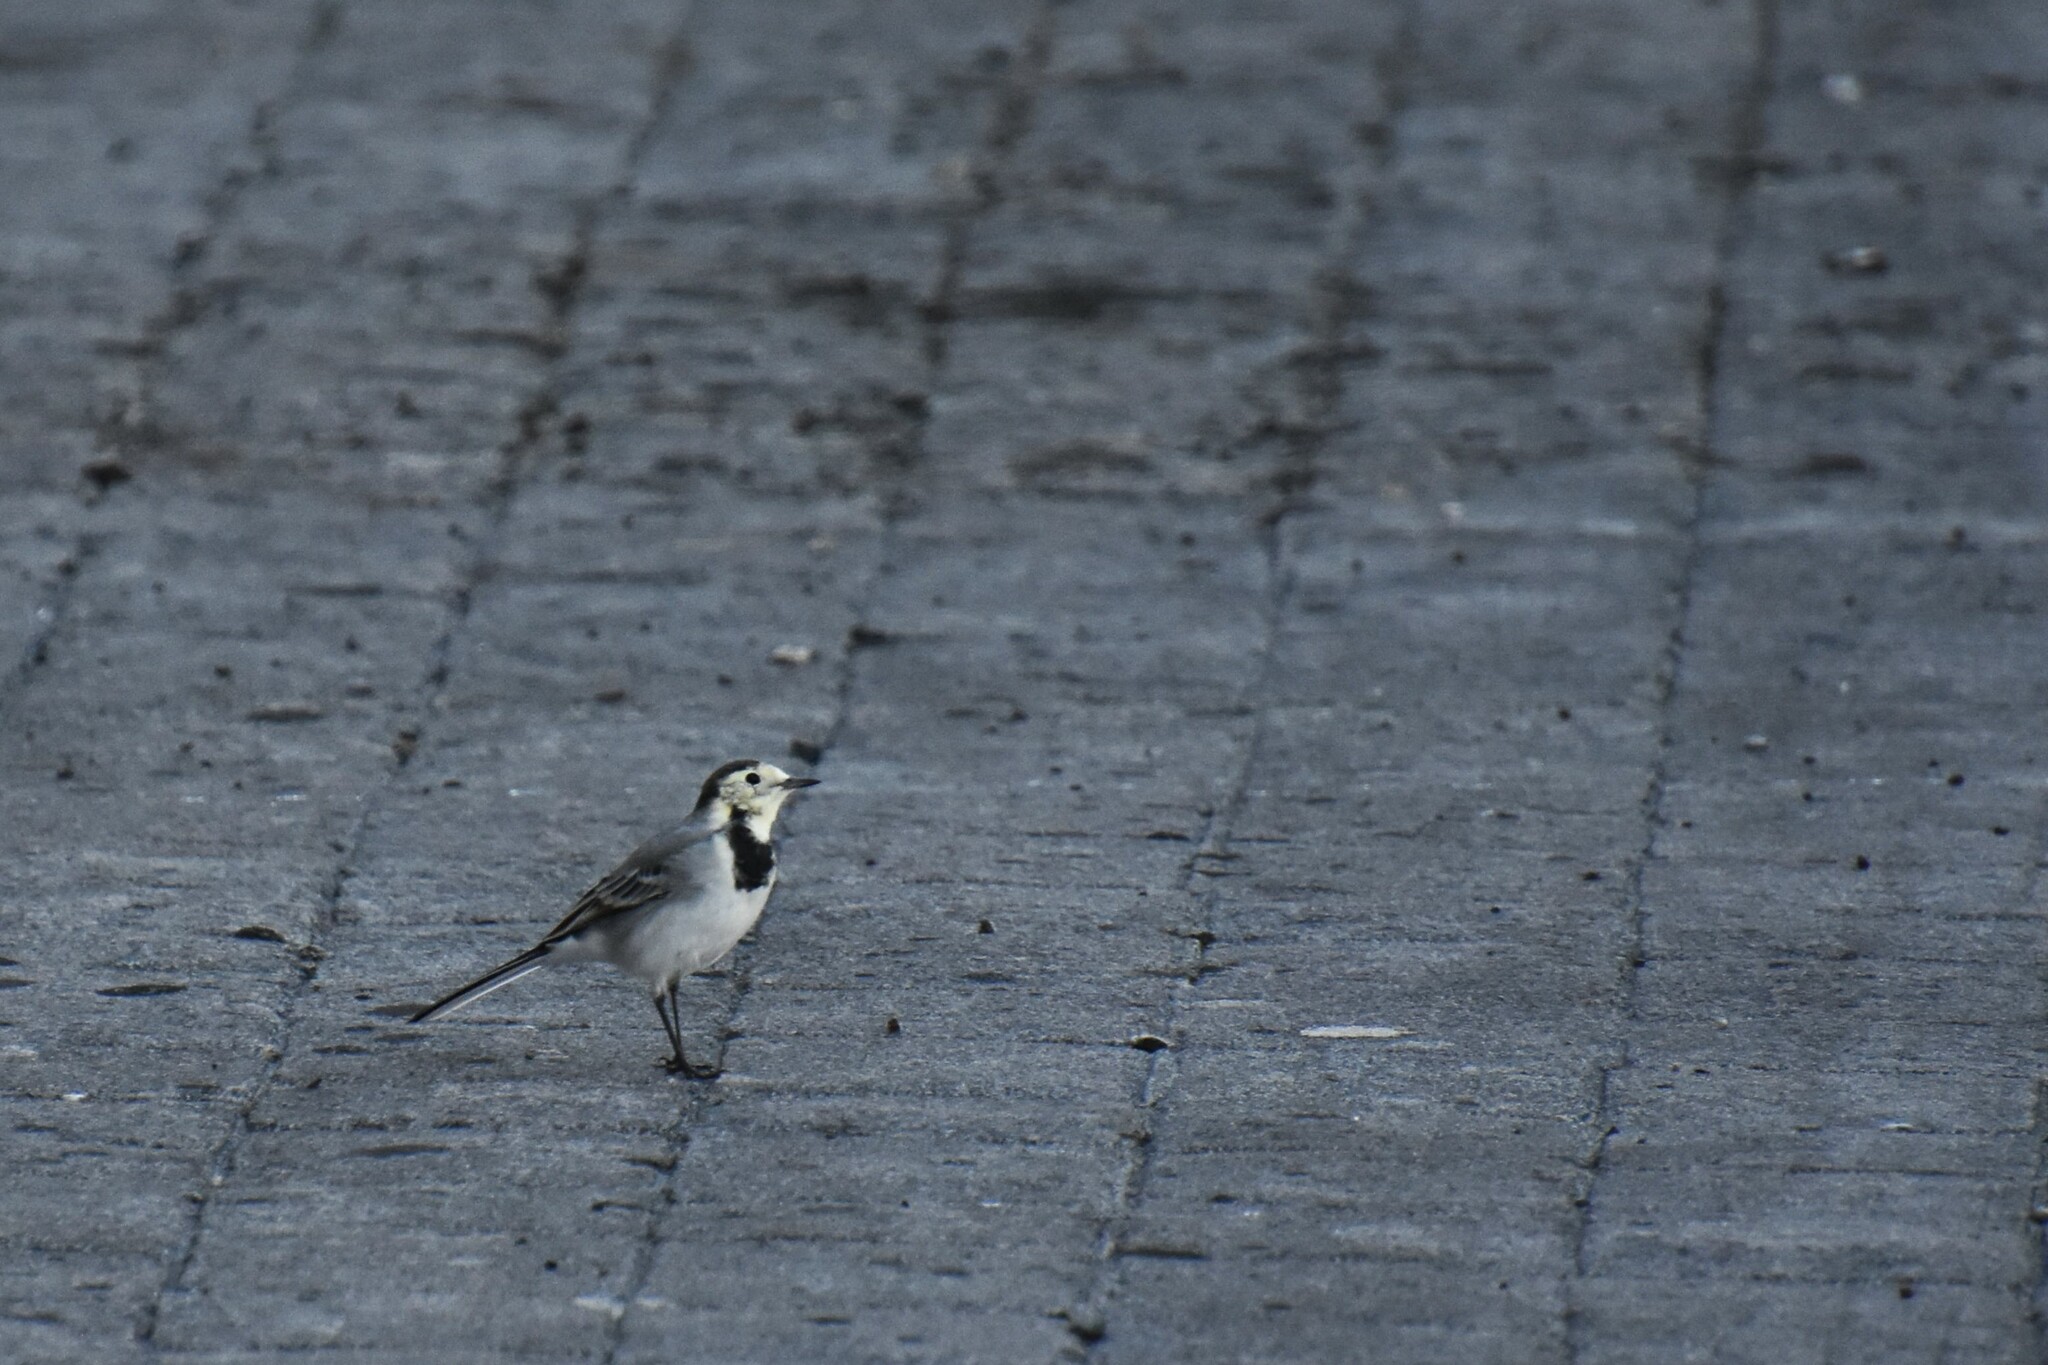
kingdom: Animalia
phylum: Chordata
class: Aves
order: Passeriformes
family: Motacillidae
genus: Motacilla
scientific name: Motacilla alba
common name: White wagtail
